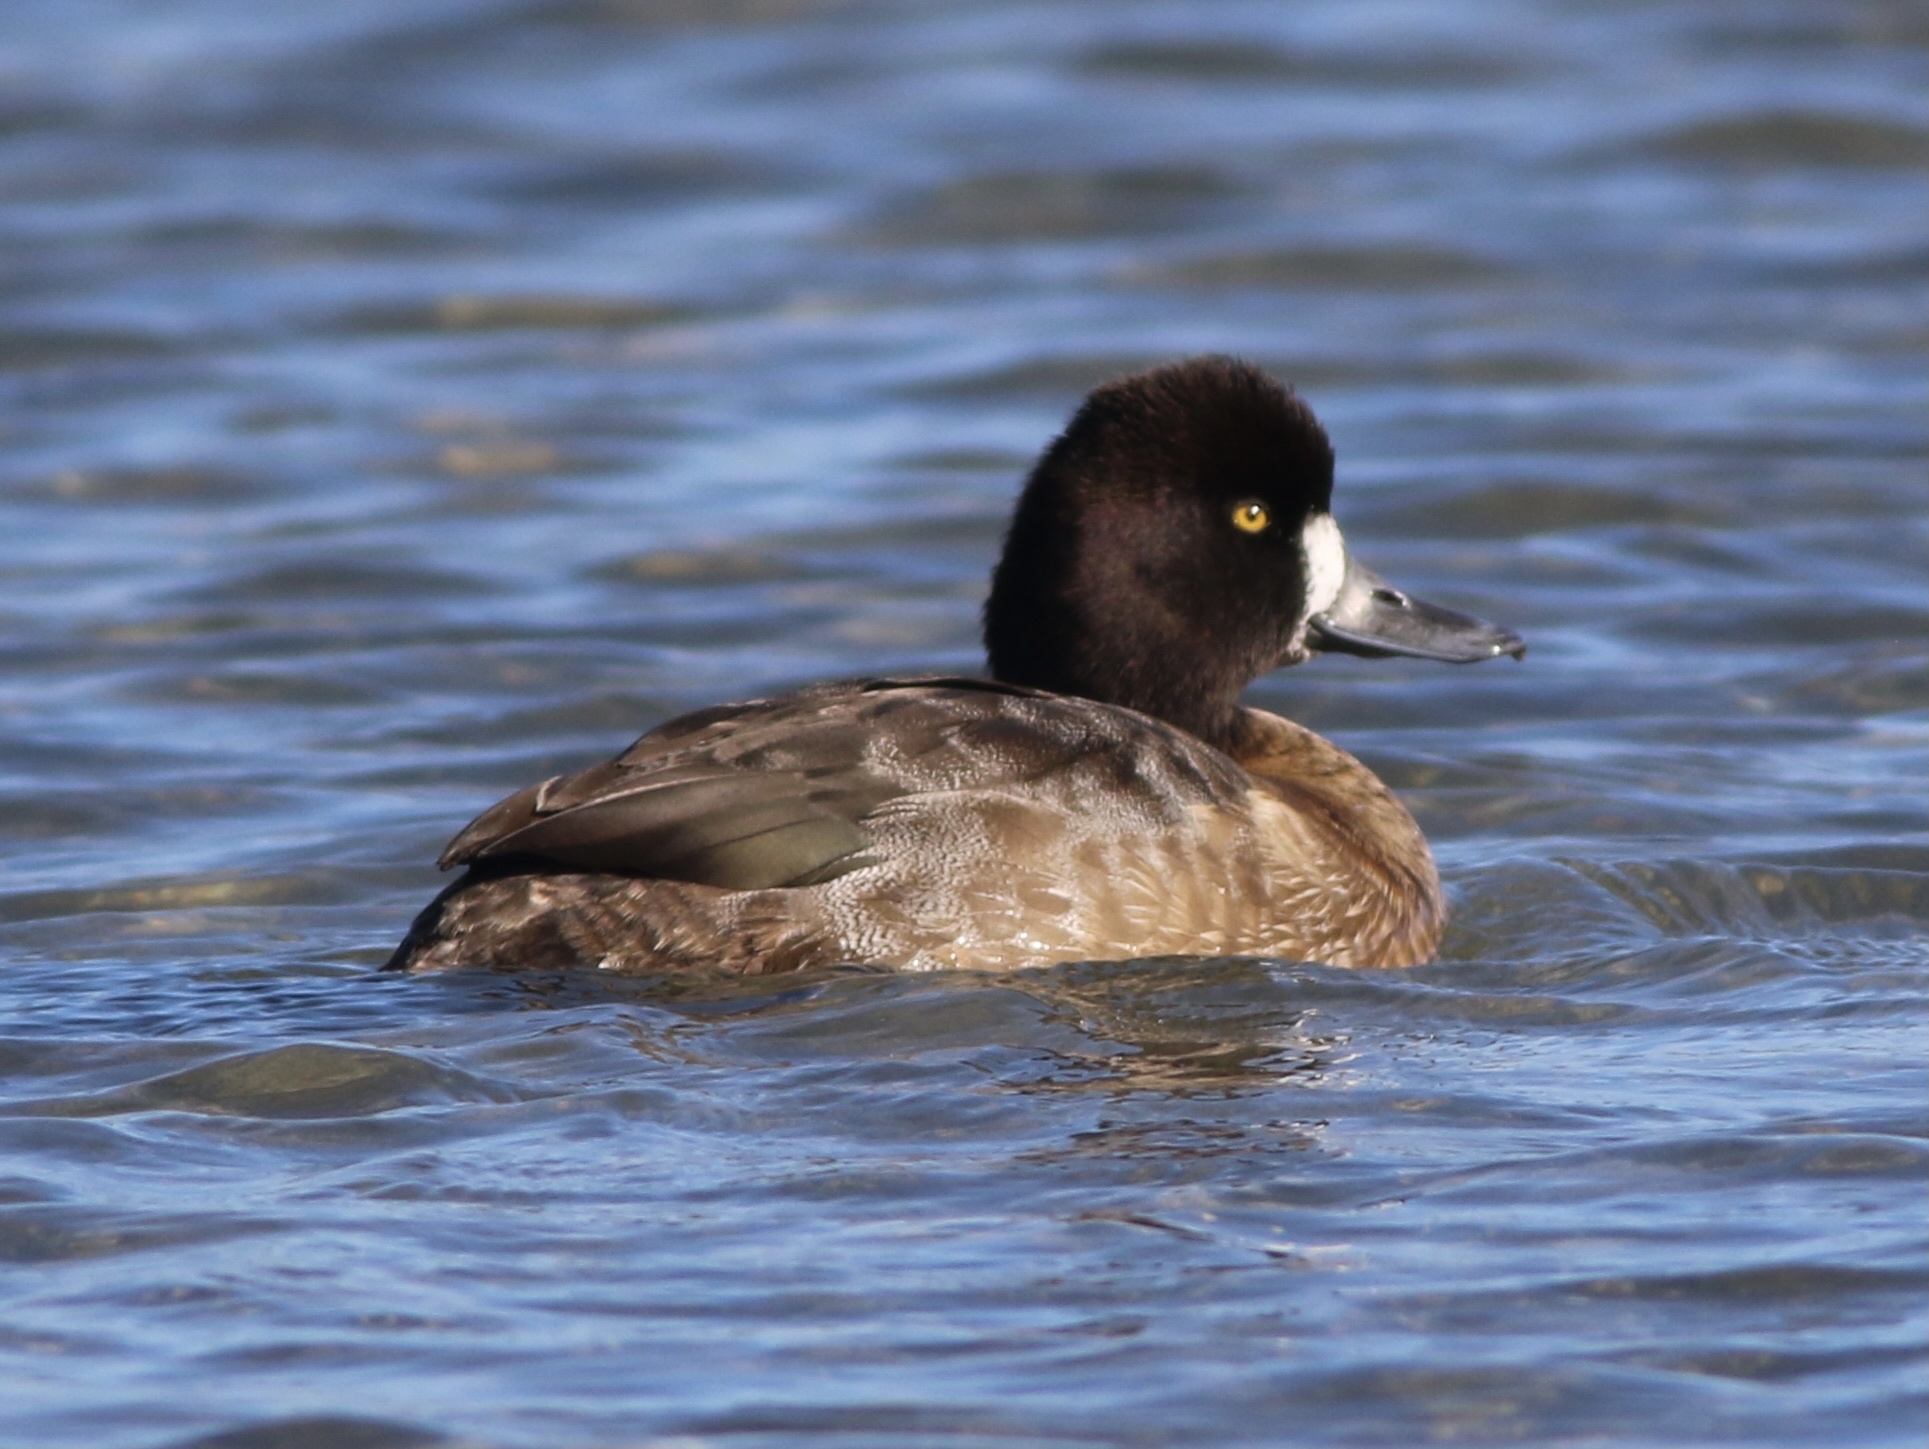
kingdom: Animalia
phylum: Chordata
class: Aves
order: Anseriformes
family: Anatidae
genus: Aythya
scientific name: Aythya affinis
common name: Lesser scaup
